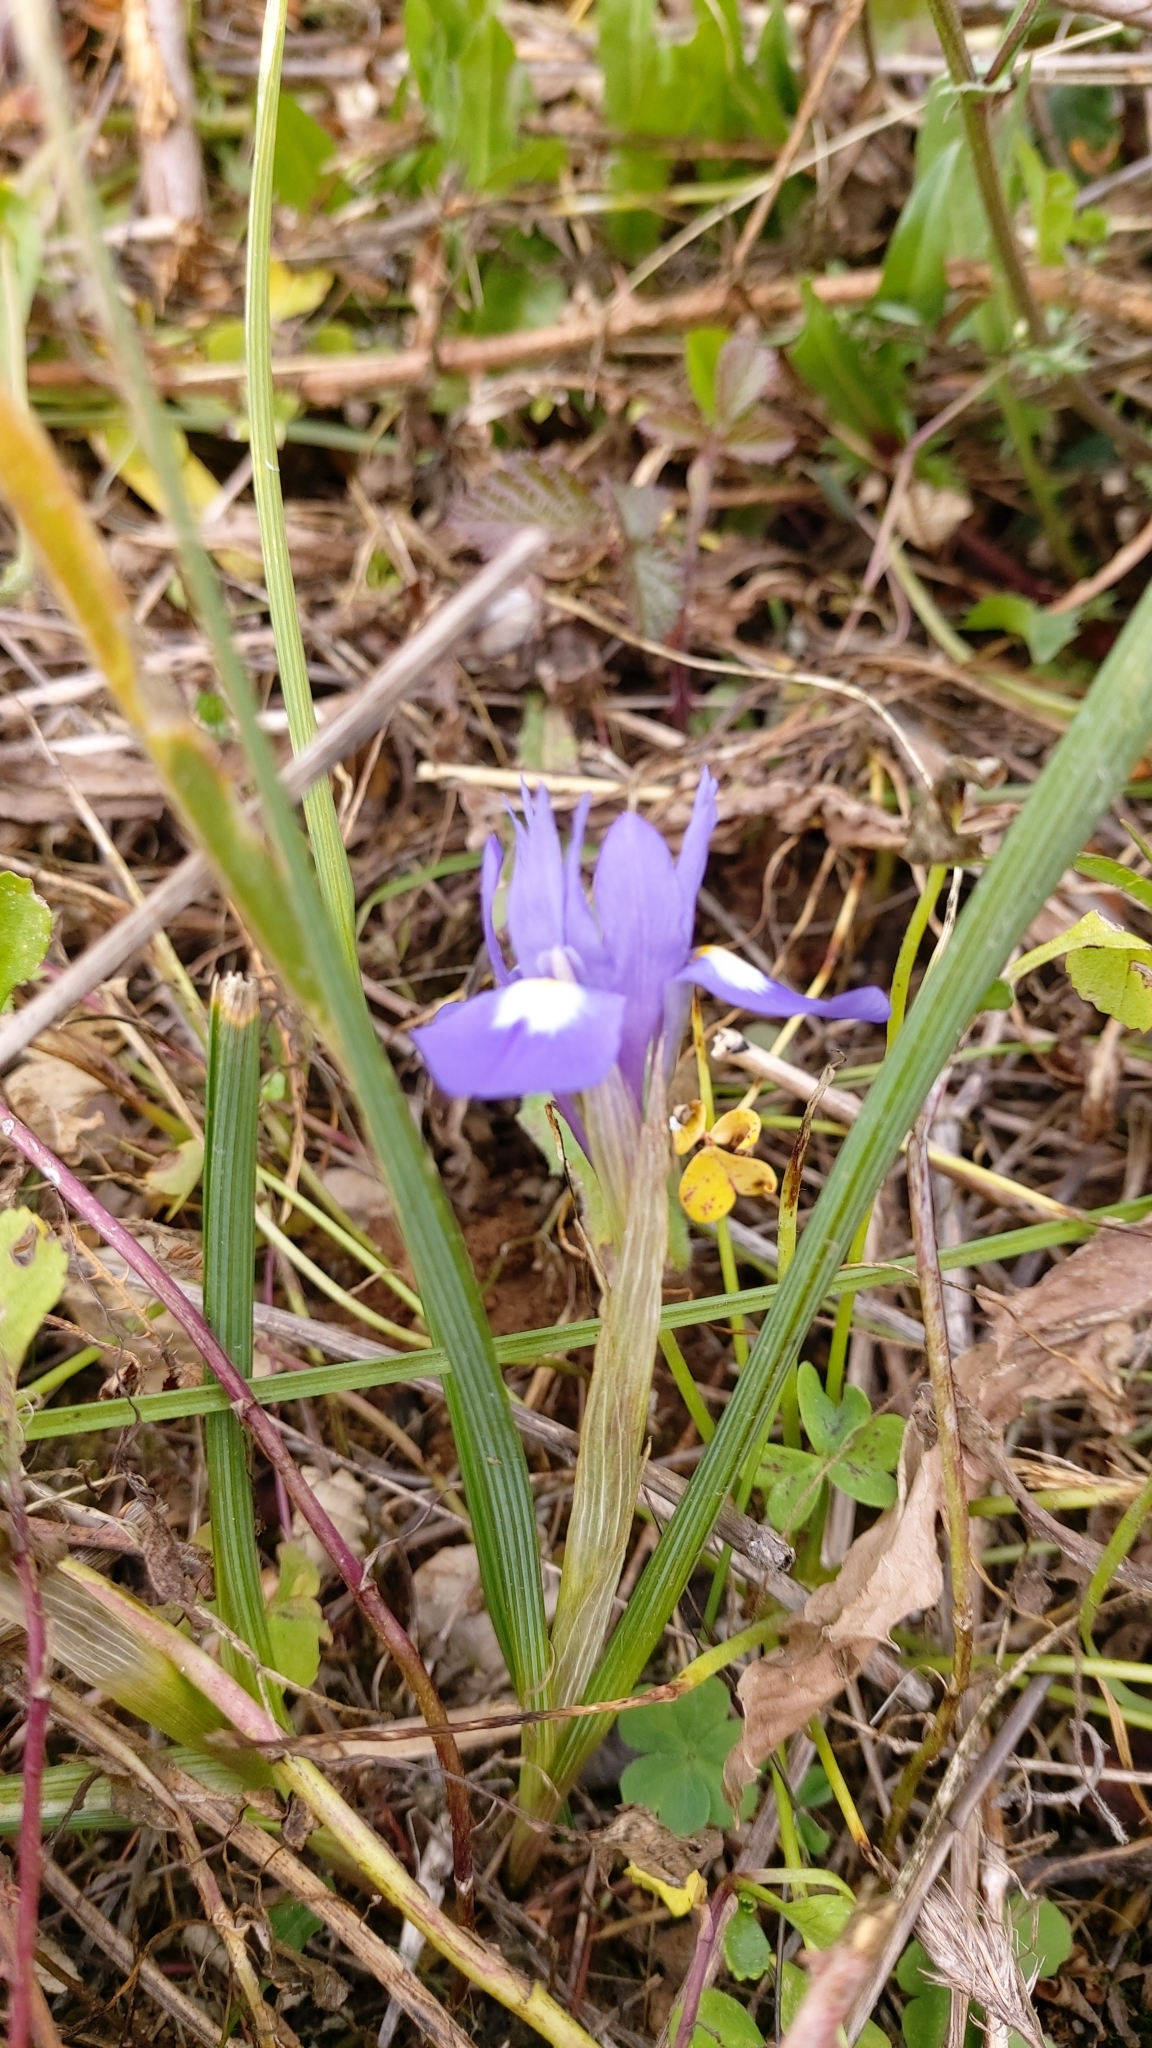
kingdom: Plantae
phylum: Tracheophyta
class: Liliopsida
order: Asparagales
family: Iridaceae
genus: Moraea
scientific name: Moraea sisyrinchium
